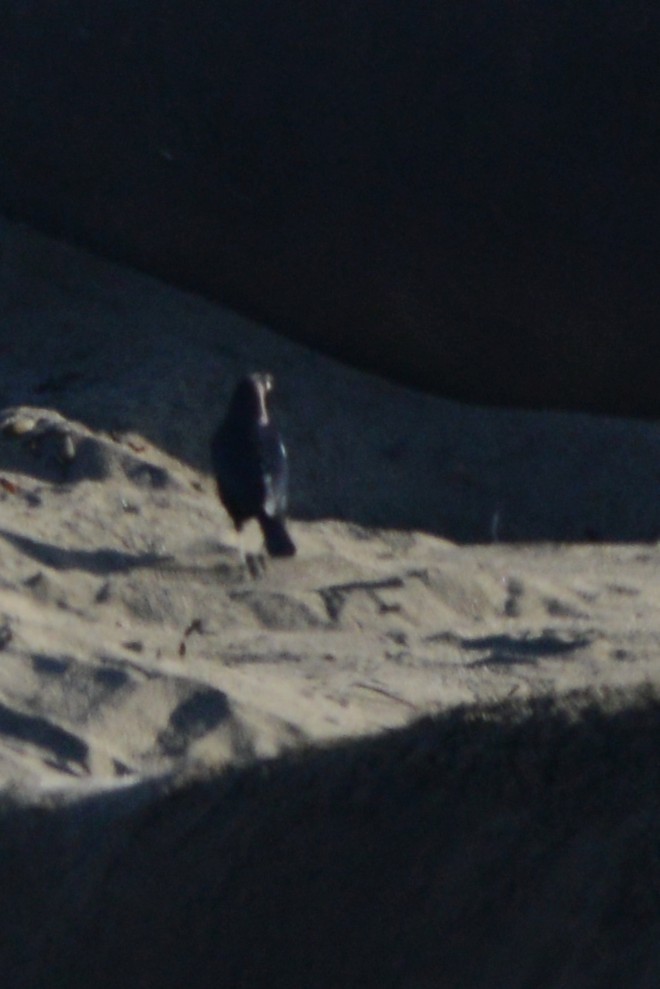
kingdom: Animalia
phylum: Chordata
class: Aves
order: Passeriformes
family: Icteridae
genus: Euphagus
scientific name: Euphagus cyanocephalus
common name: Brewer's blackbird
